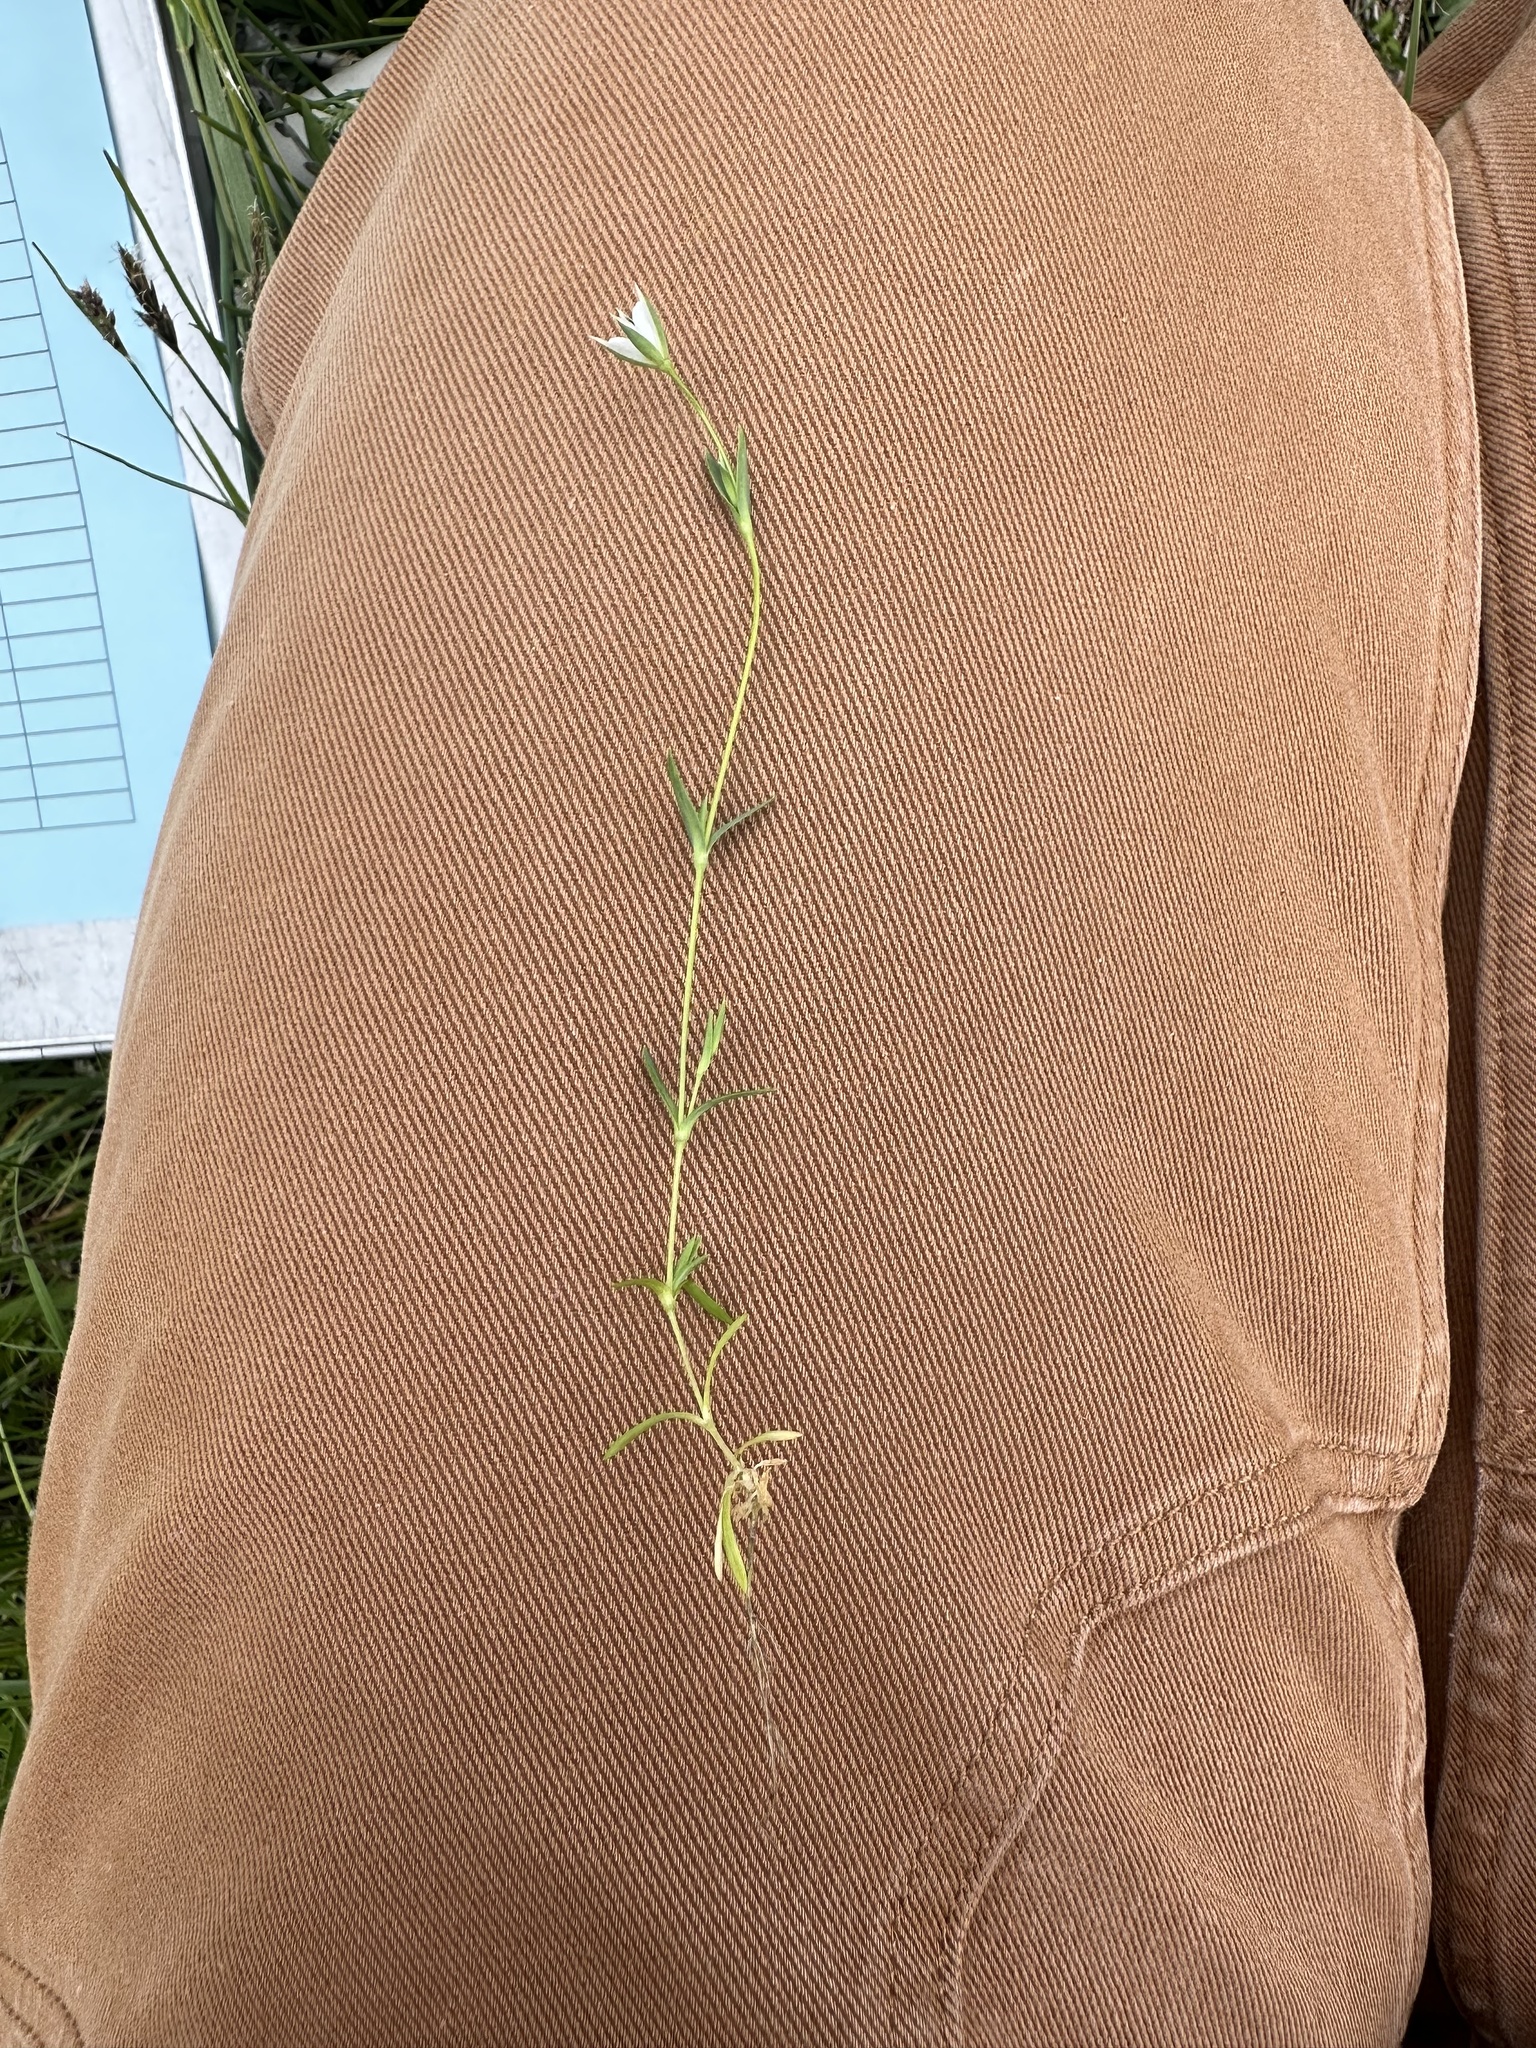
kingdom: Plantae
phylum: Tracheophyta
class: Magnoliopsida
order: Caryophyllales
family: Caryophyllaceae
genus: Moenchia
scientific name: Moenchia erecta
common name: Upright chickweed
